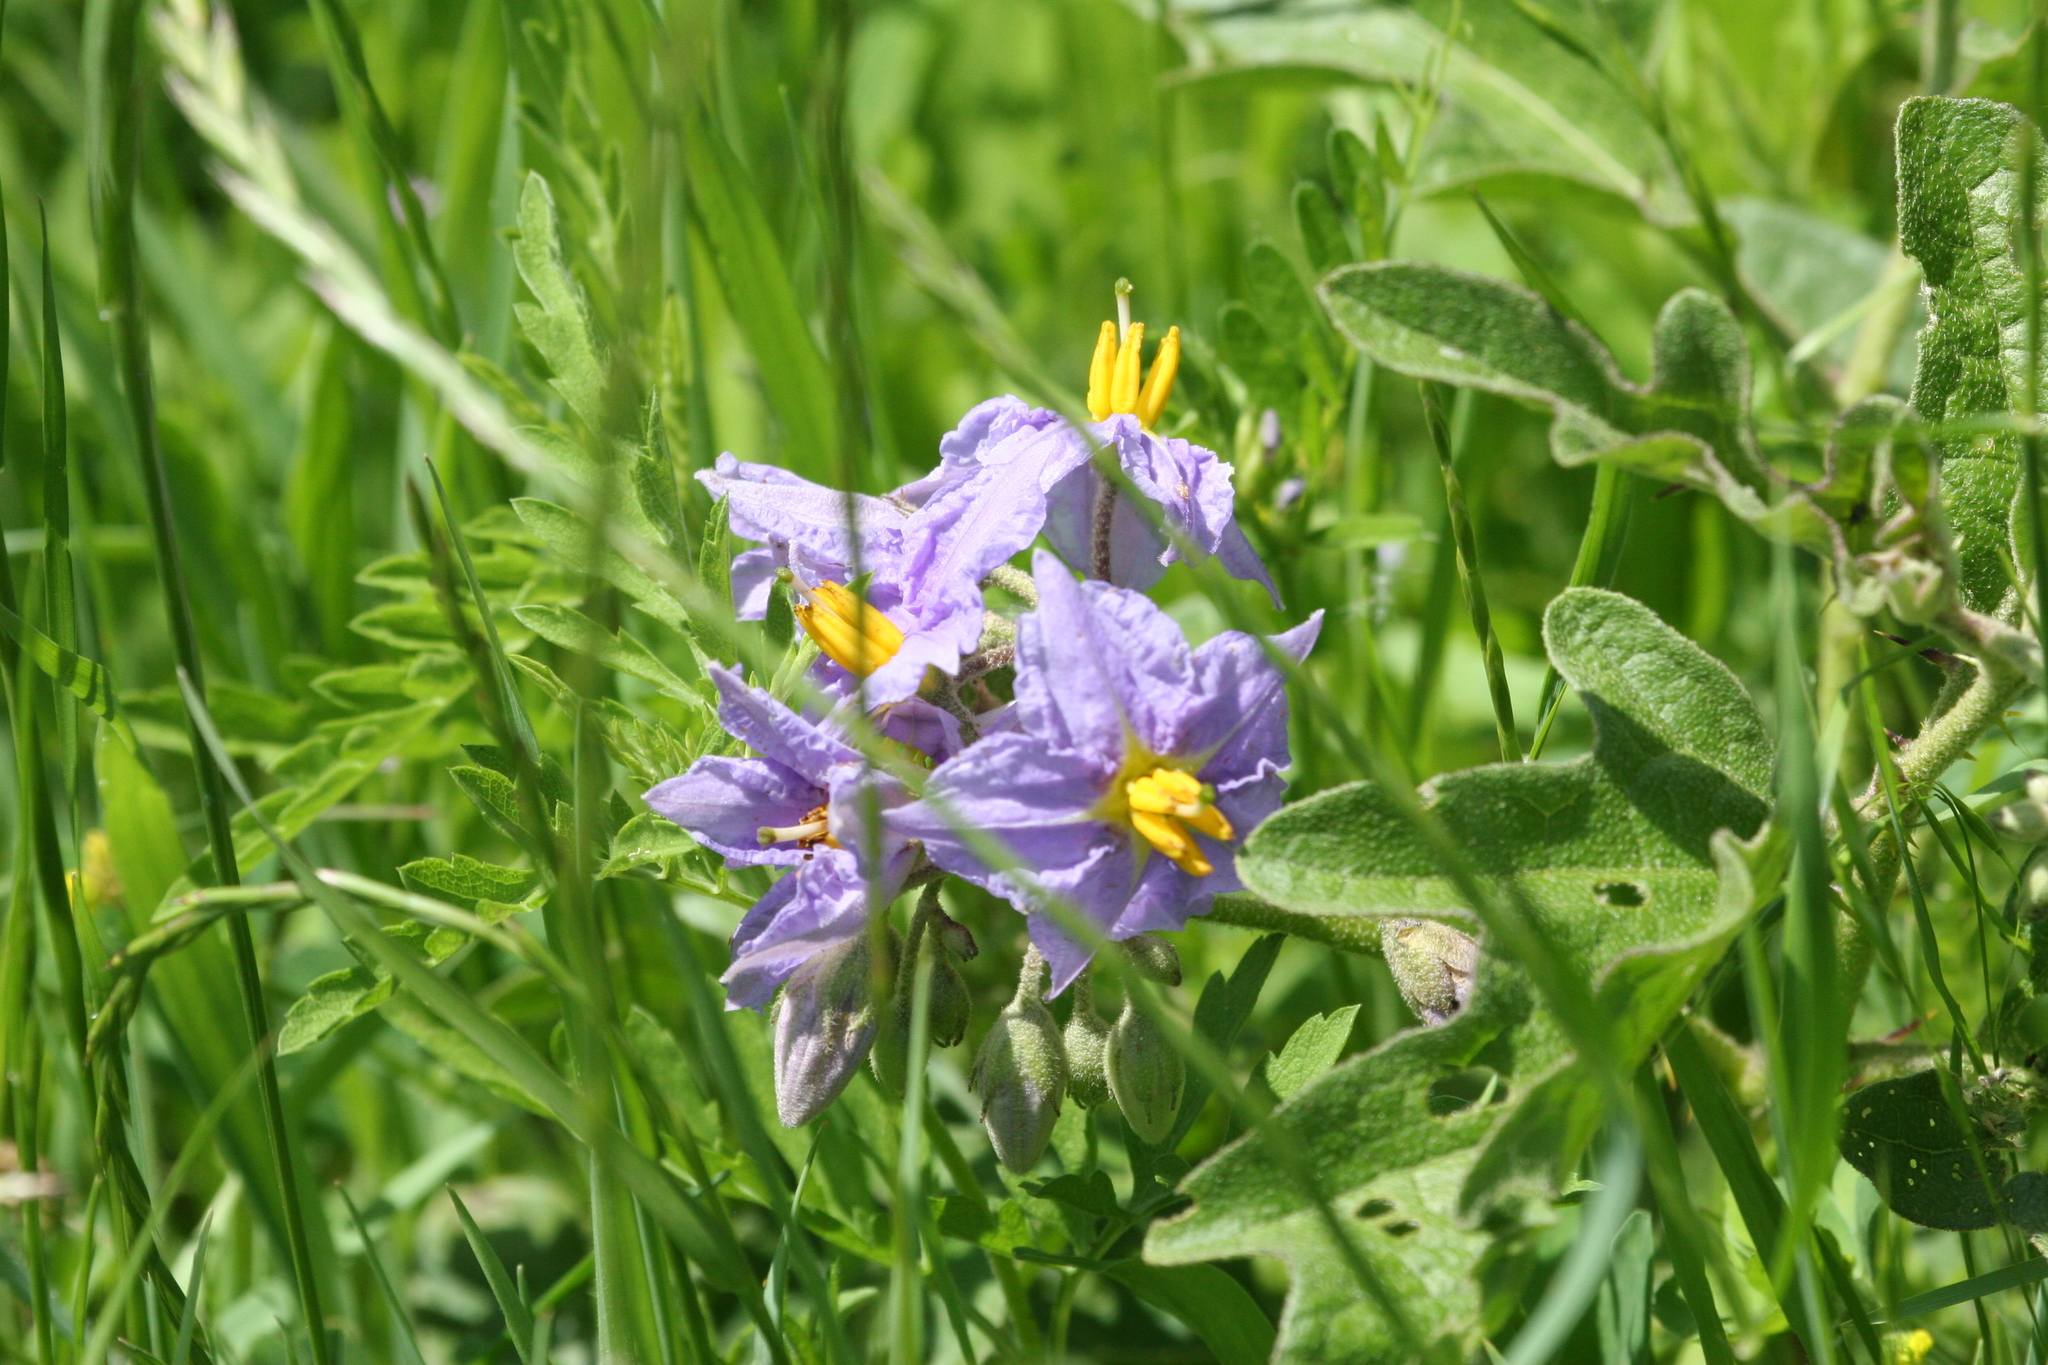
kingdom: Plantae
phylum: Tracheophyta
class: Magnoliopsida
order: Solanales
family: Solanaceae
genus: Solanum
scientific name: Solanum dimidiatum
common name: Carolina horse-nettle
